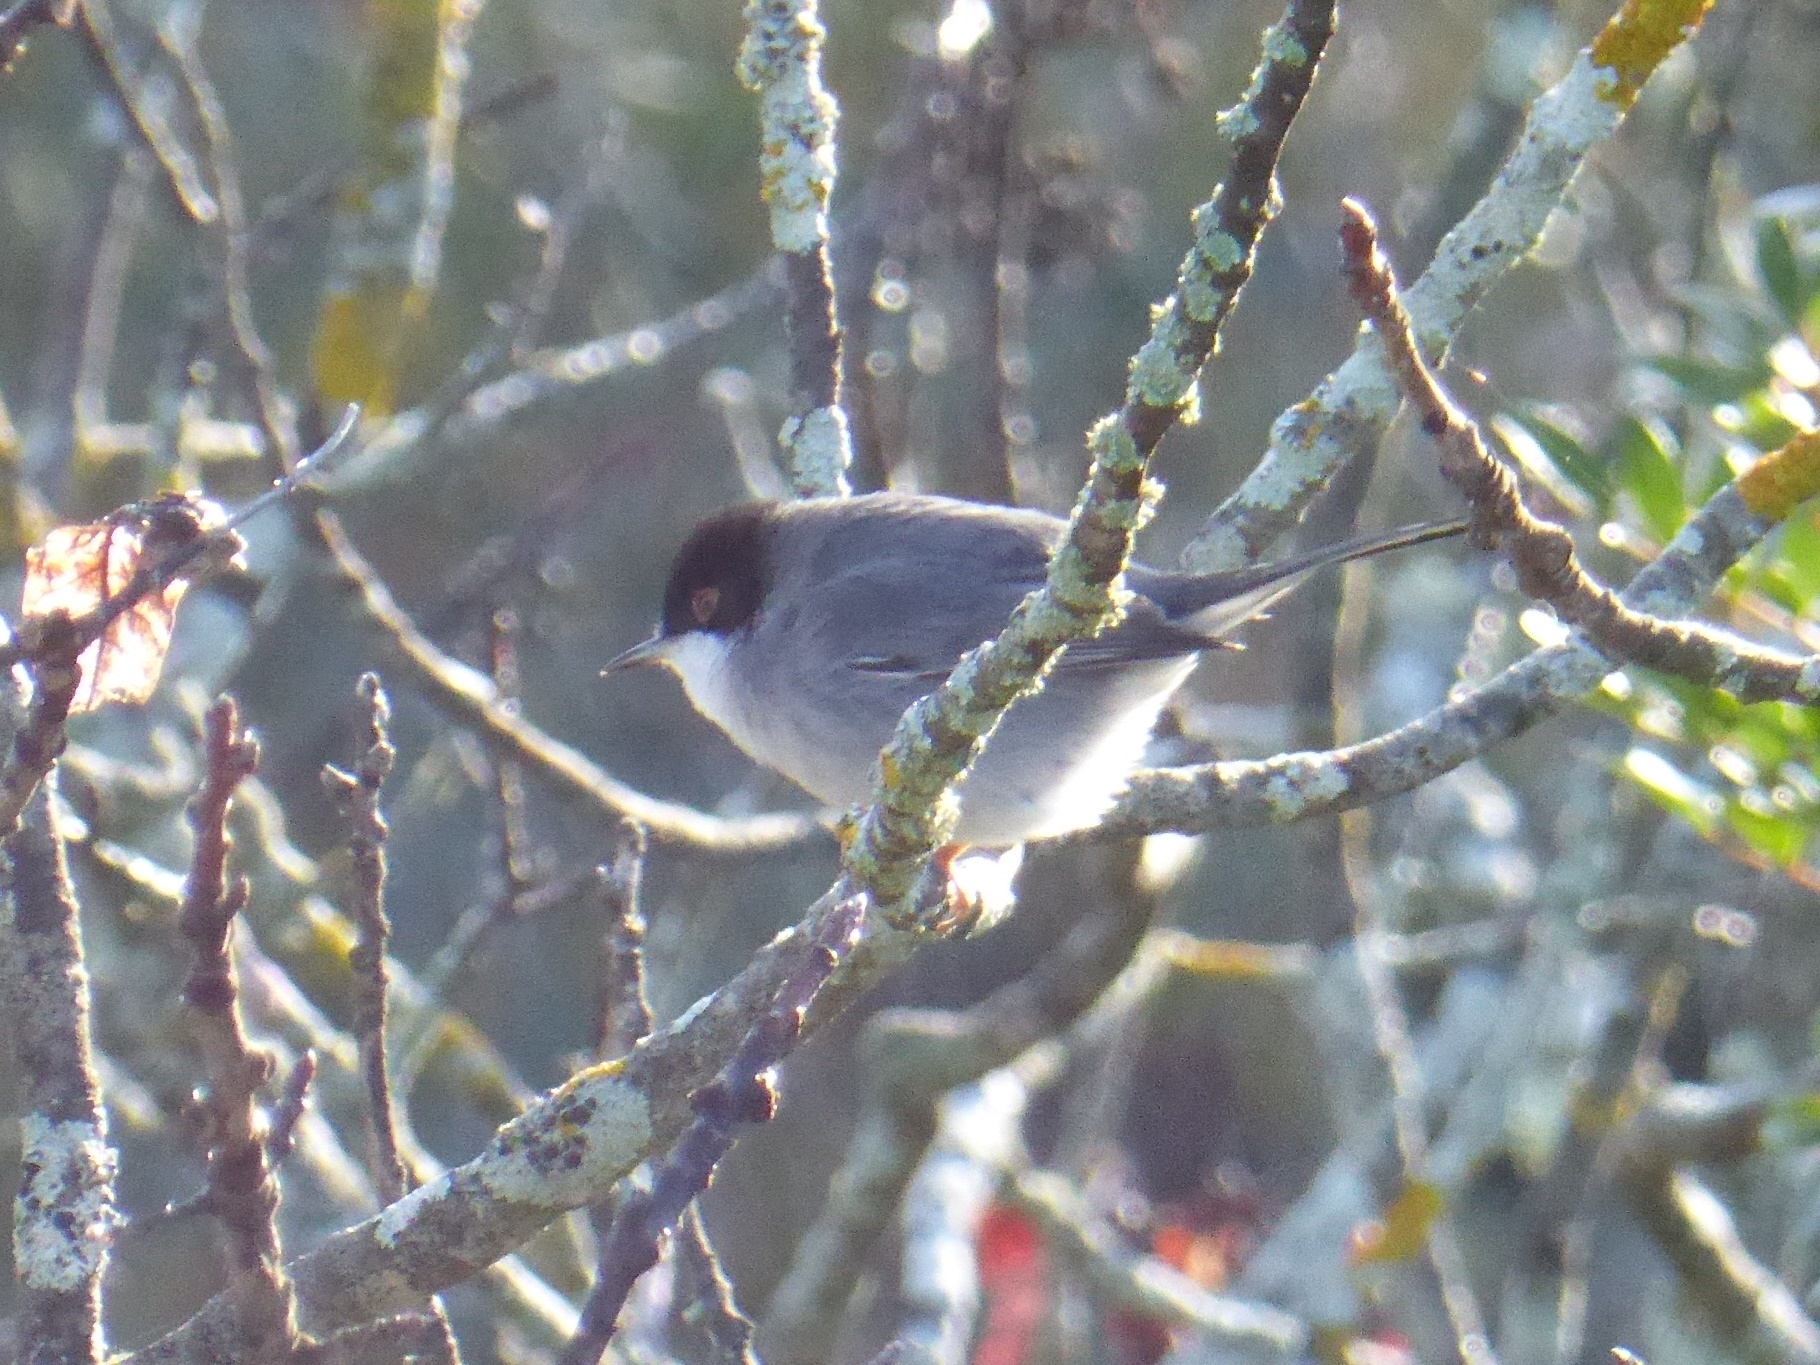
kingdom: Animalia
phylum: Chordata
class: Aves
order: Passeriformes
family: Sylviidae
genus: Curruca
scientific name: Curruca melanocephala
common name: Sardinian warbler
